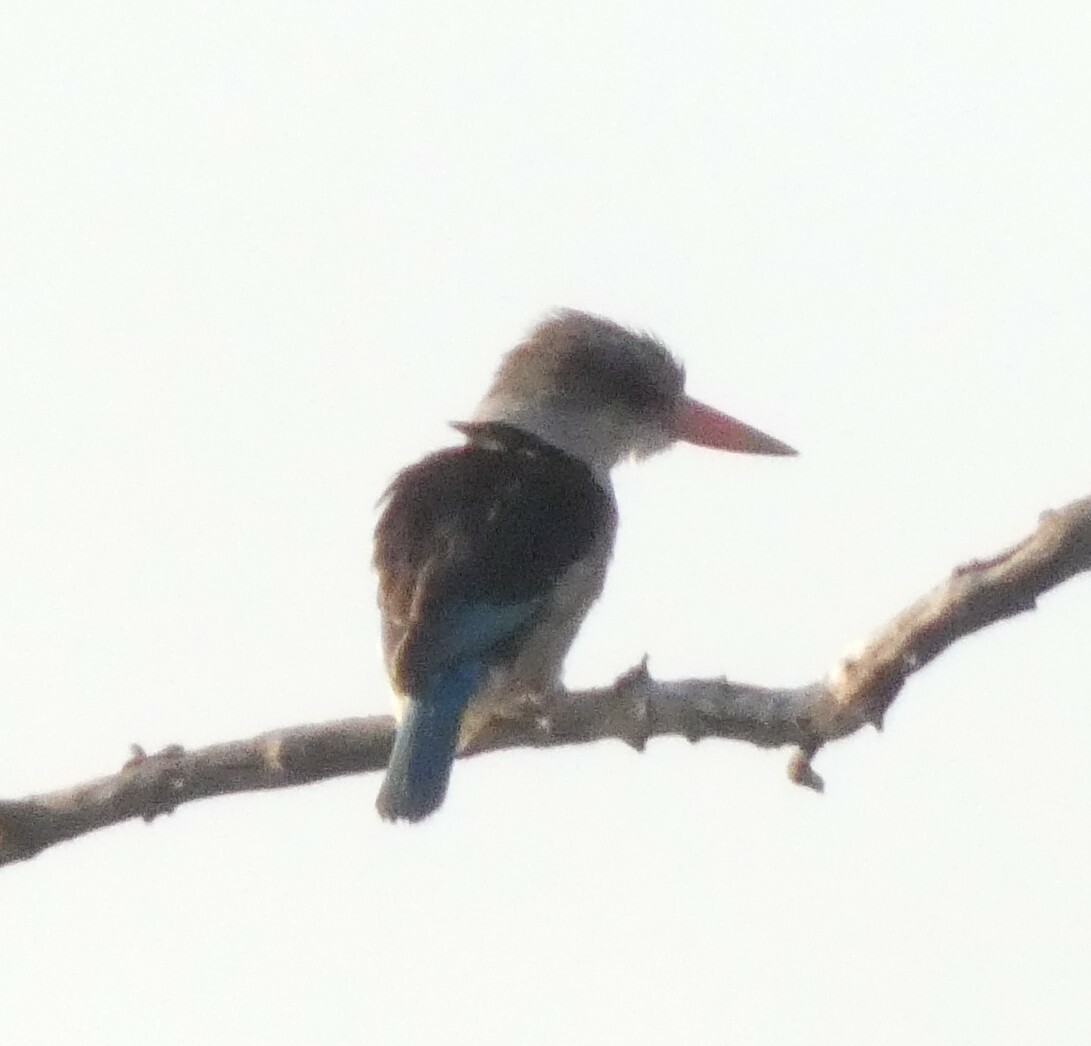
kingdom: Animalia
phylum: Chordata
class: Aves
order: Coraciiformes
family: Alcedinidae
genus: Halcyon
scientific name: Halcyon albiventris
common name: Brown-hooded kingfisher
